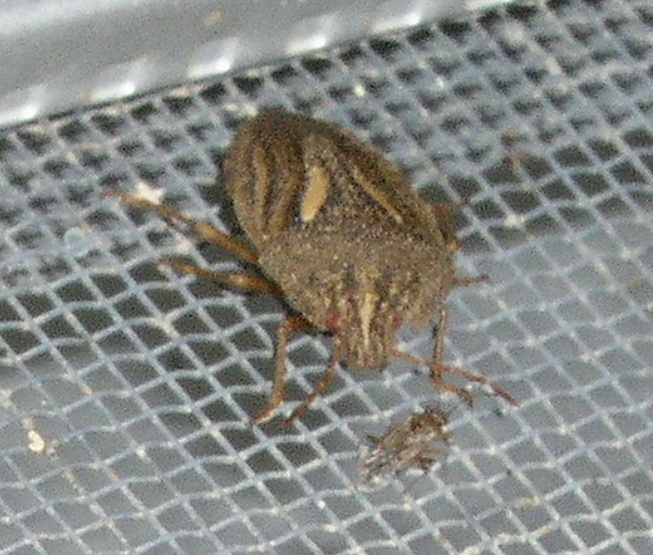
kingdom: Animalia
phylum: Arthropoda
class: Insecta
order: Hemiptera
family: Pentatomidae
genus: Cephaloplatus
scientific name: Cephaloplatus
